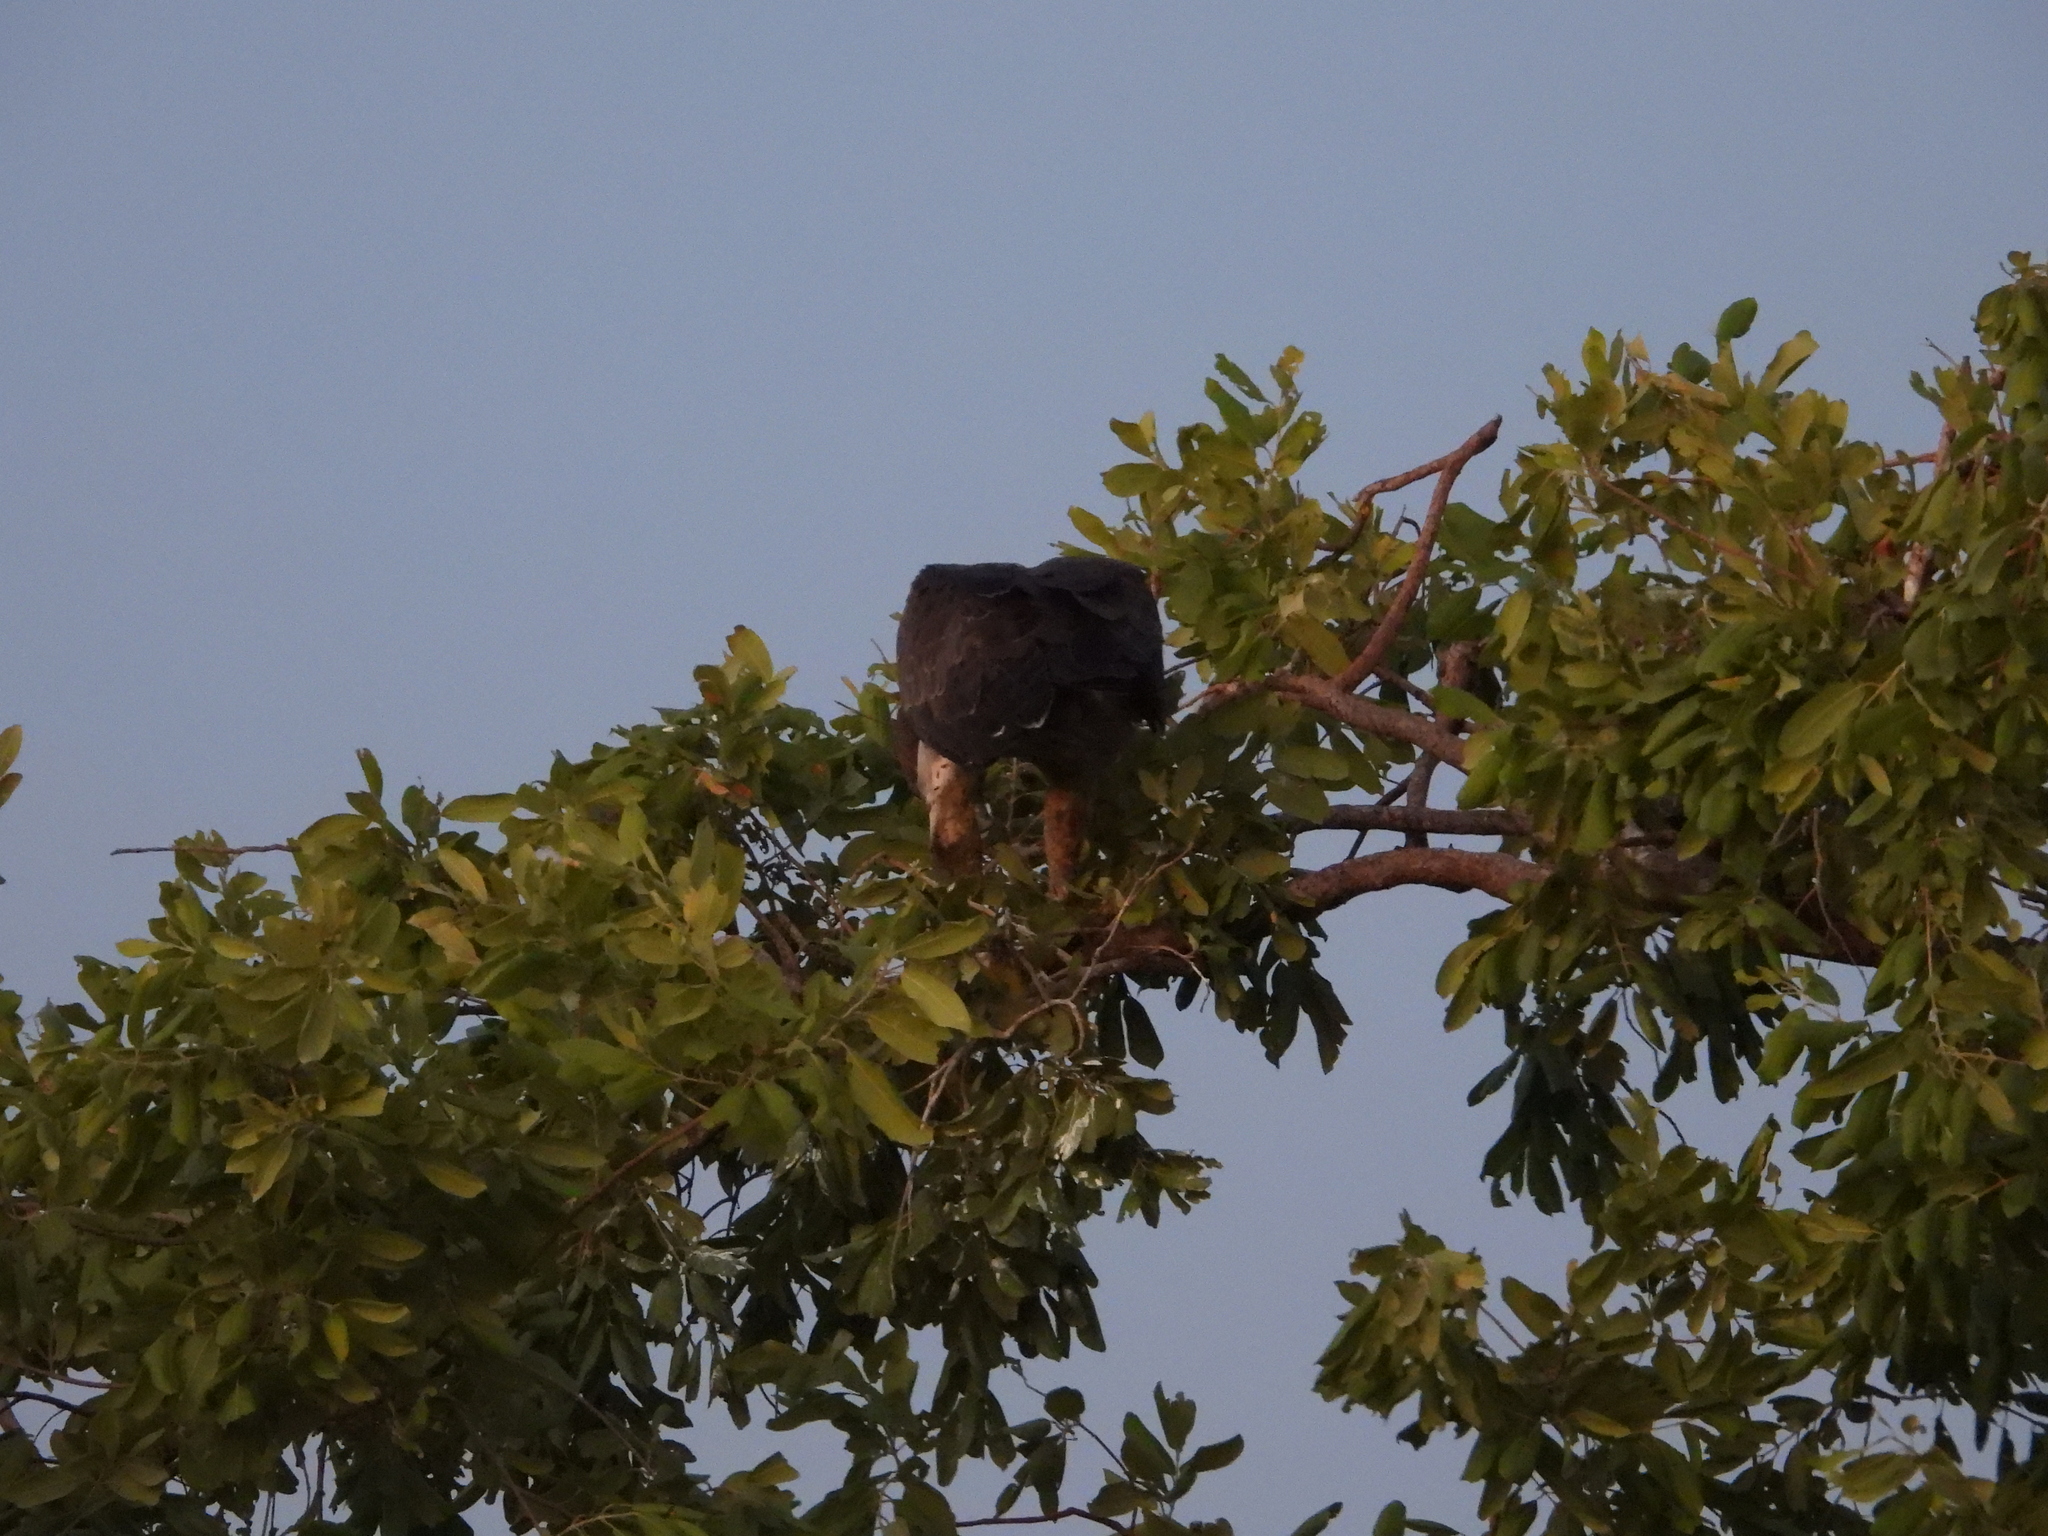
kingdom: Animalia
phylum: Chordata
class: Aves
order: Accipitriformes
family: Accipitridae
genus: Polemaetus
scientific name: Polemaetus bellicosus
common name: Martial eagle
